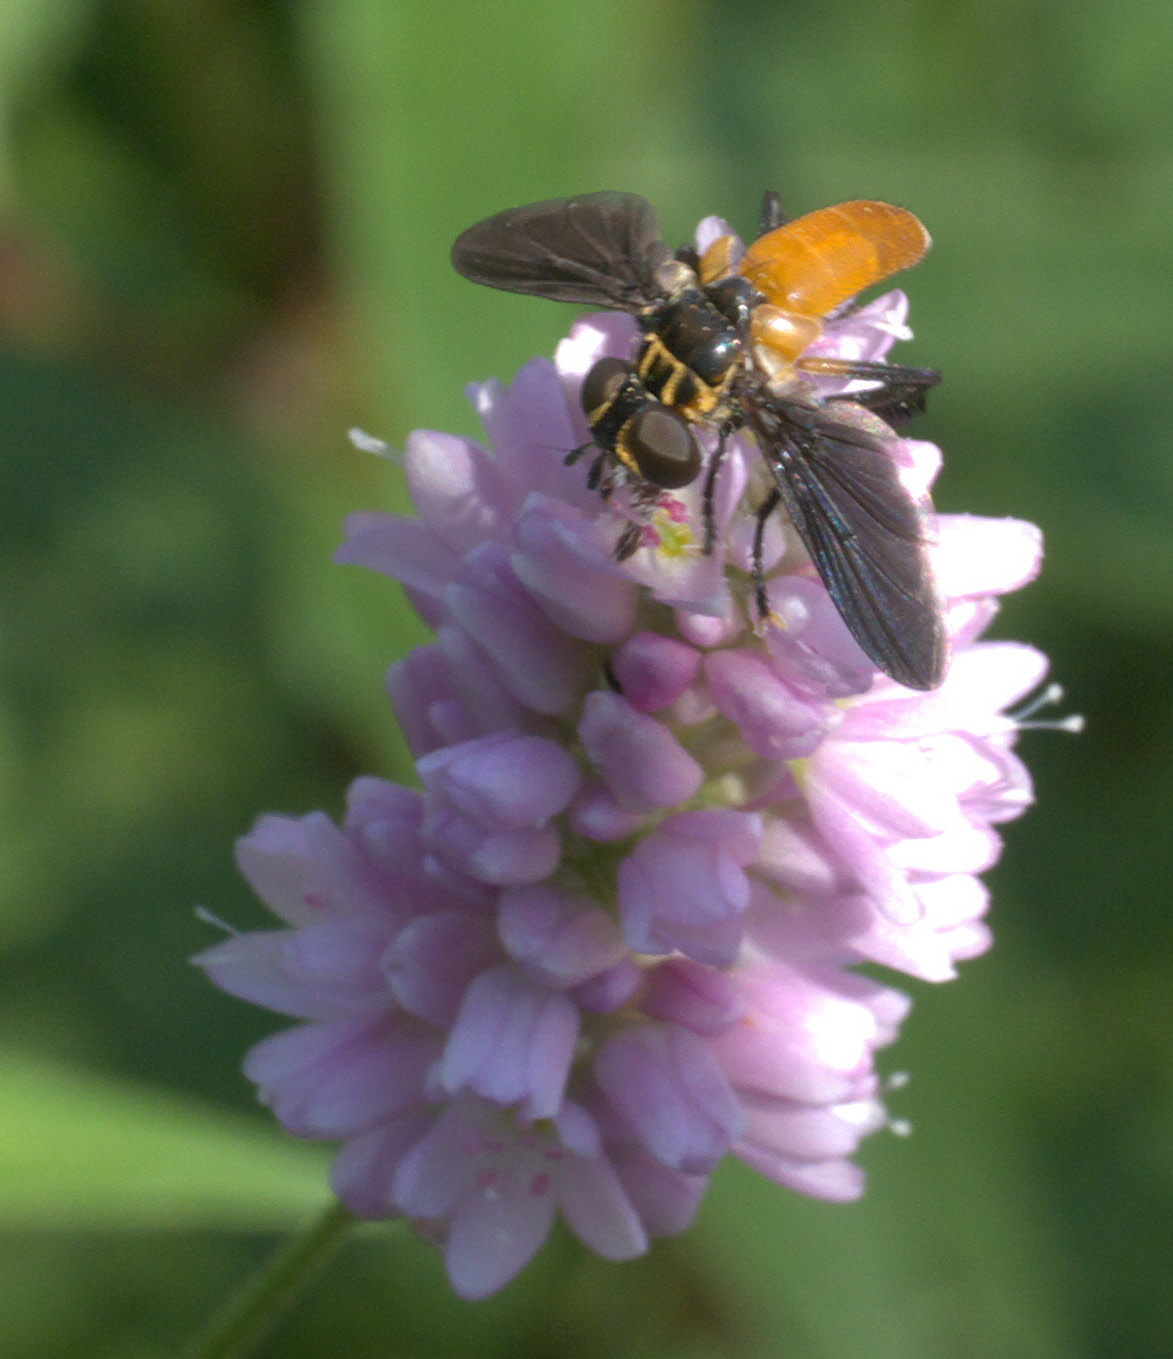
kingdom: Animalia
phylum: Arthropoda
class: Insecta
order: Diptera
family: Tachinidae
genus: Trichopoda
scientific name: Trichopoda pennipes
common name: Tachinid fly
